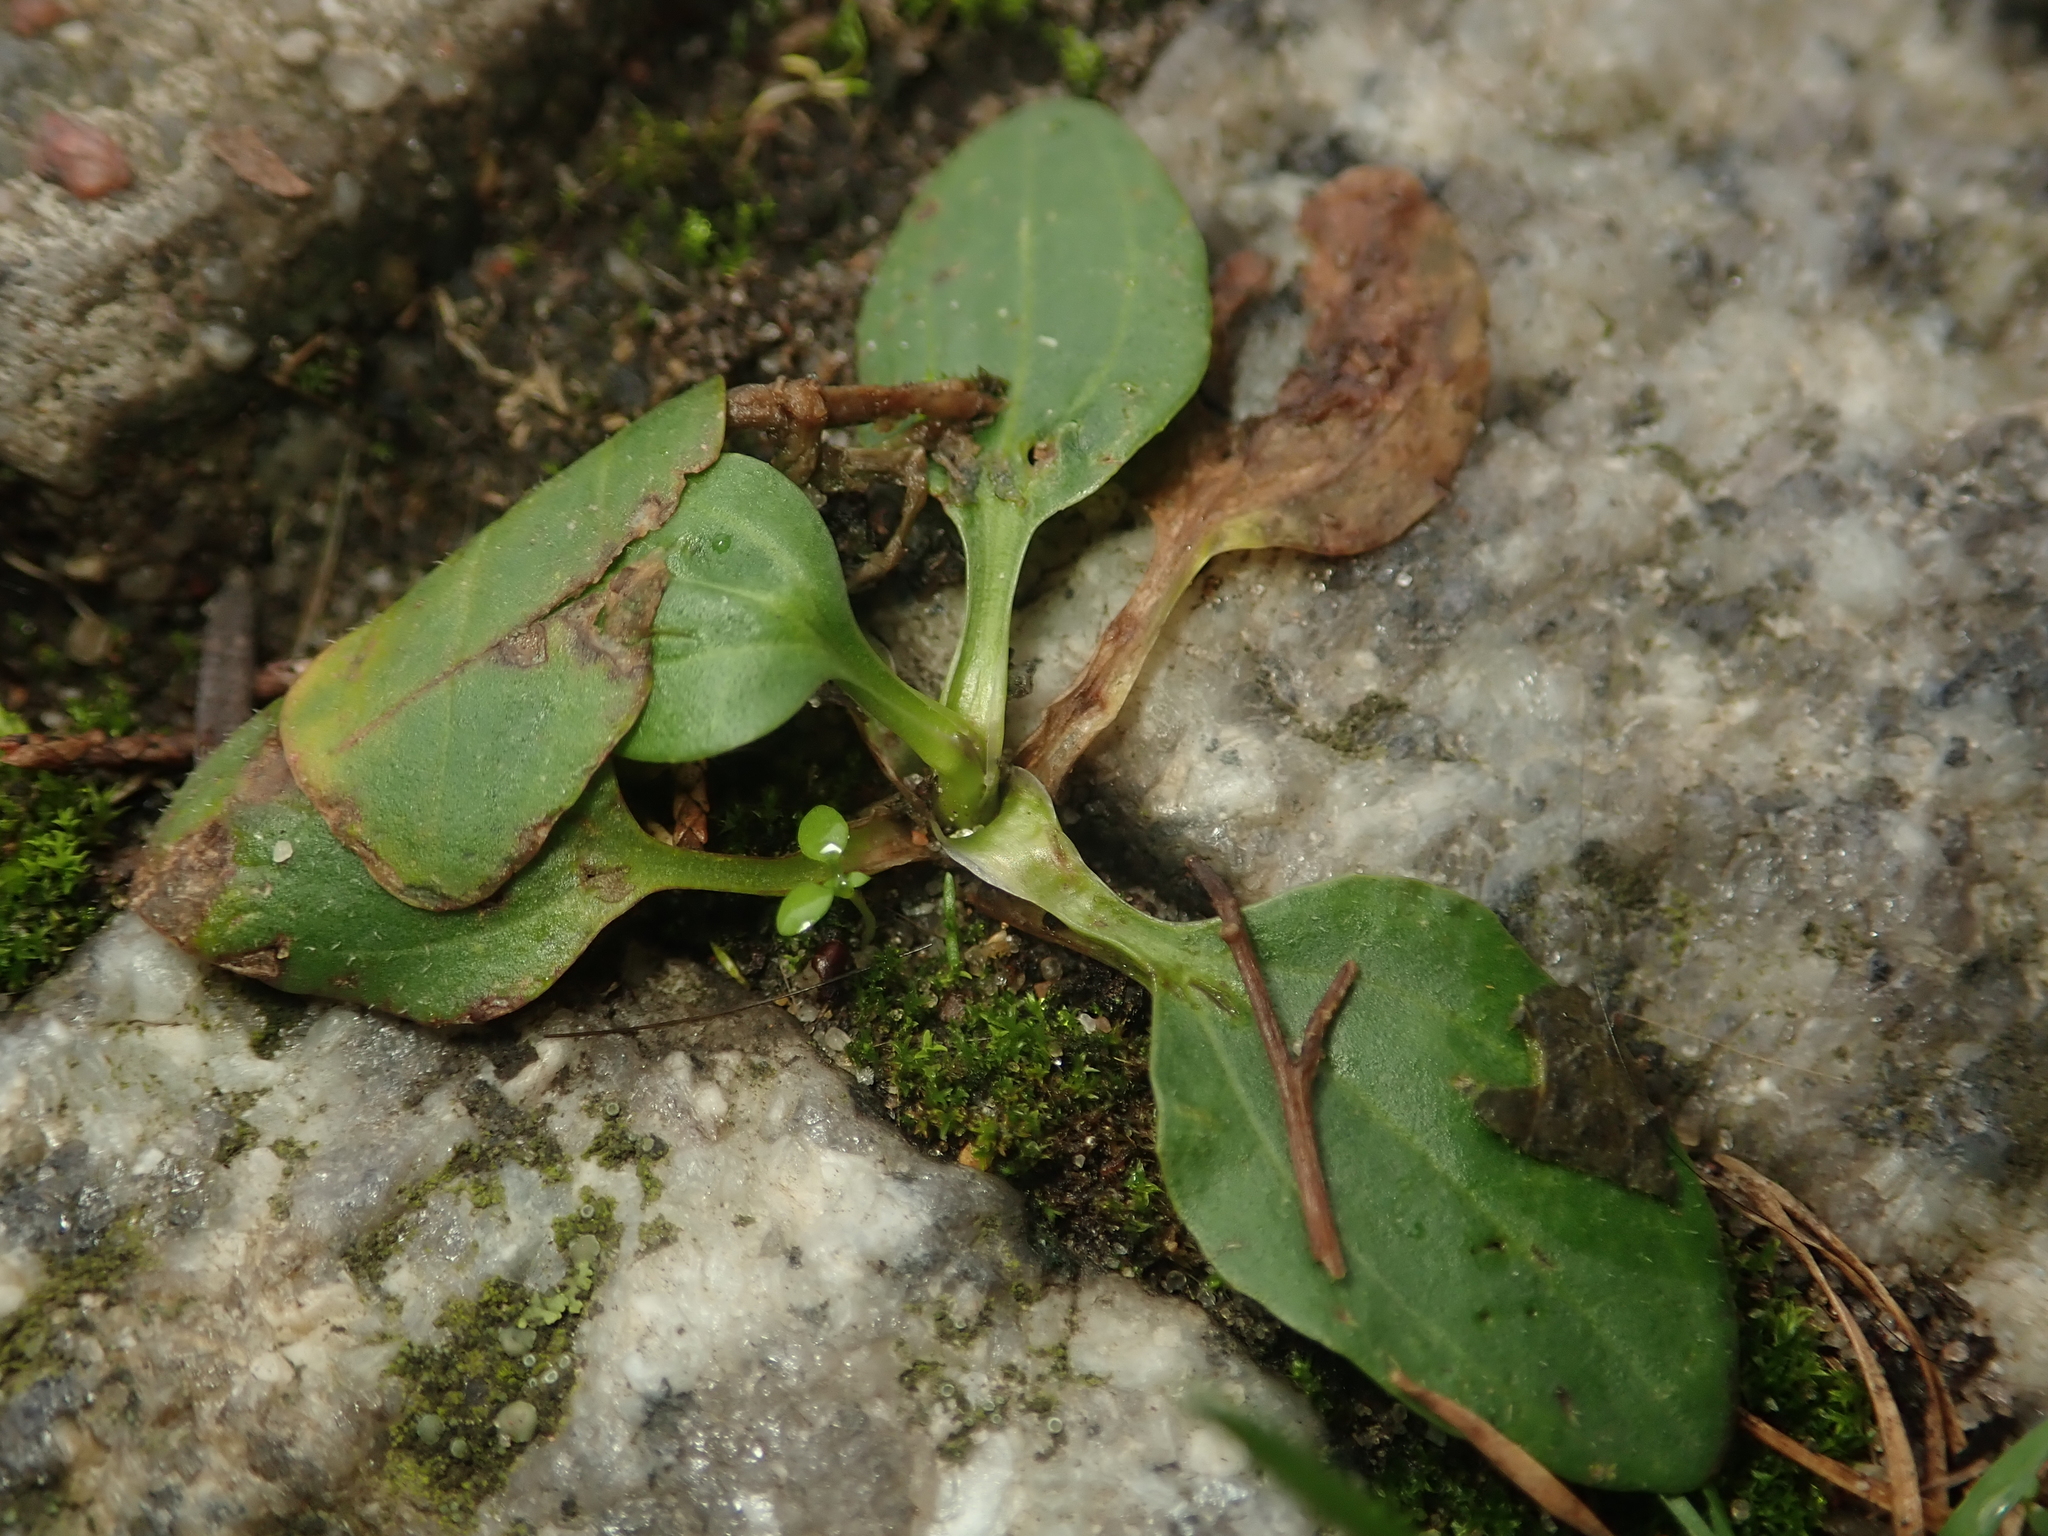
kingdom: Plantae
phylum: Tracheophyta
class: Magnoliopsida
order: Lamiales
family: Plantaginaceae
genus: Plantago
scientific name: Plantago major
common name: Common plantain
